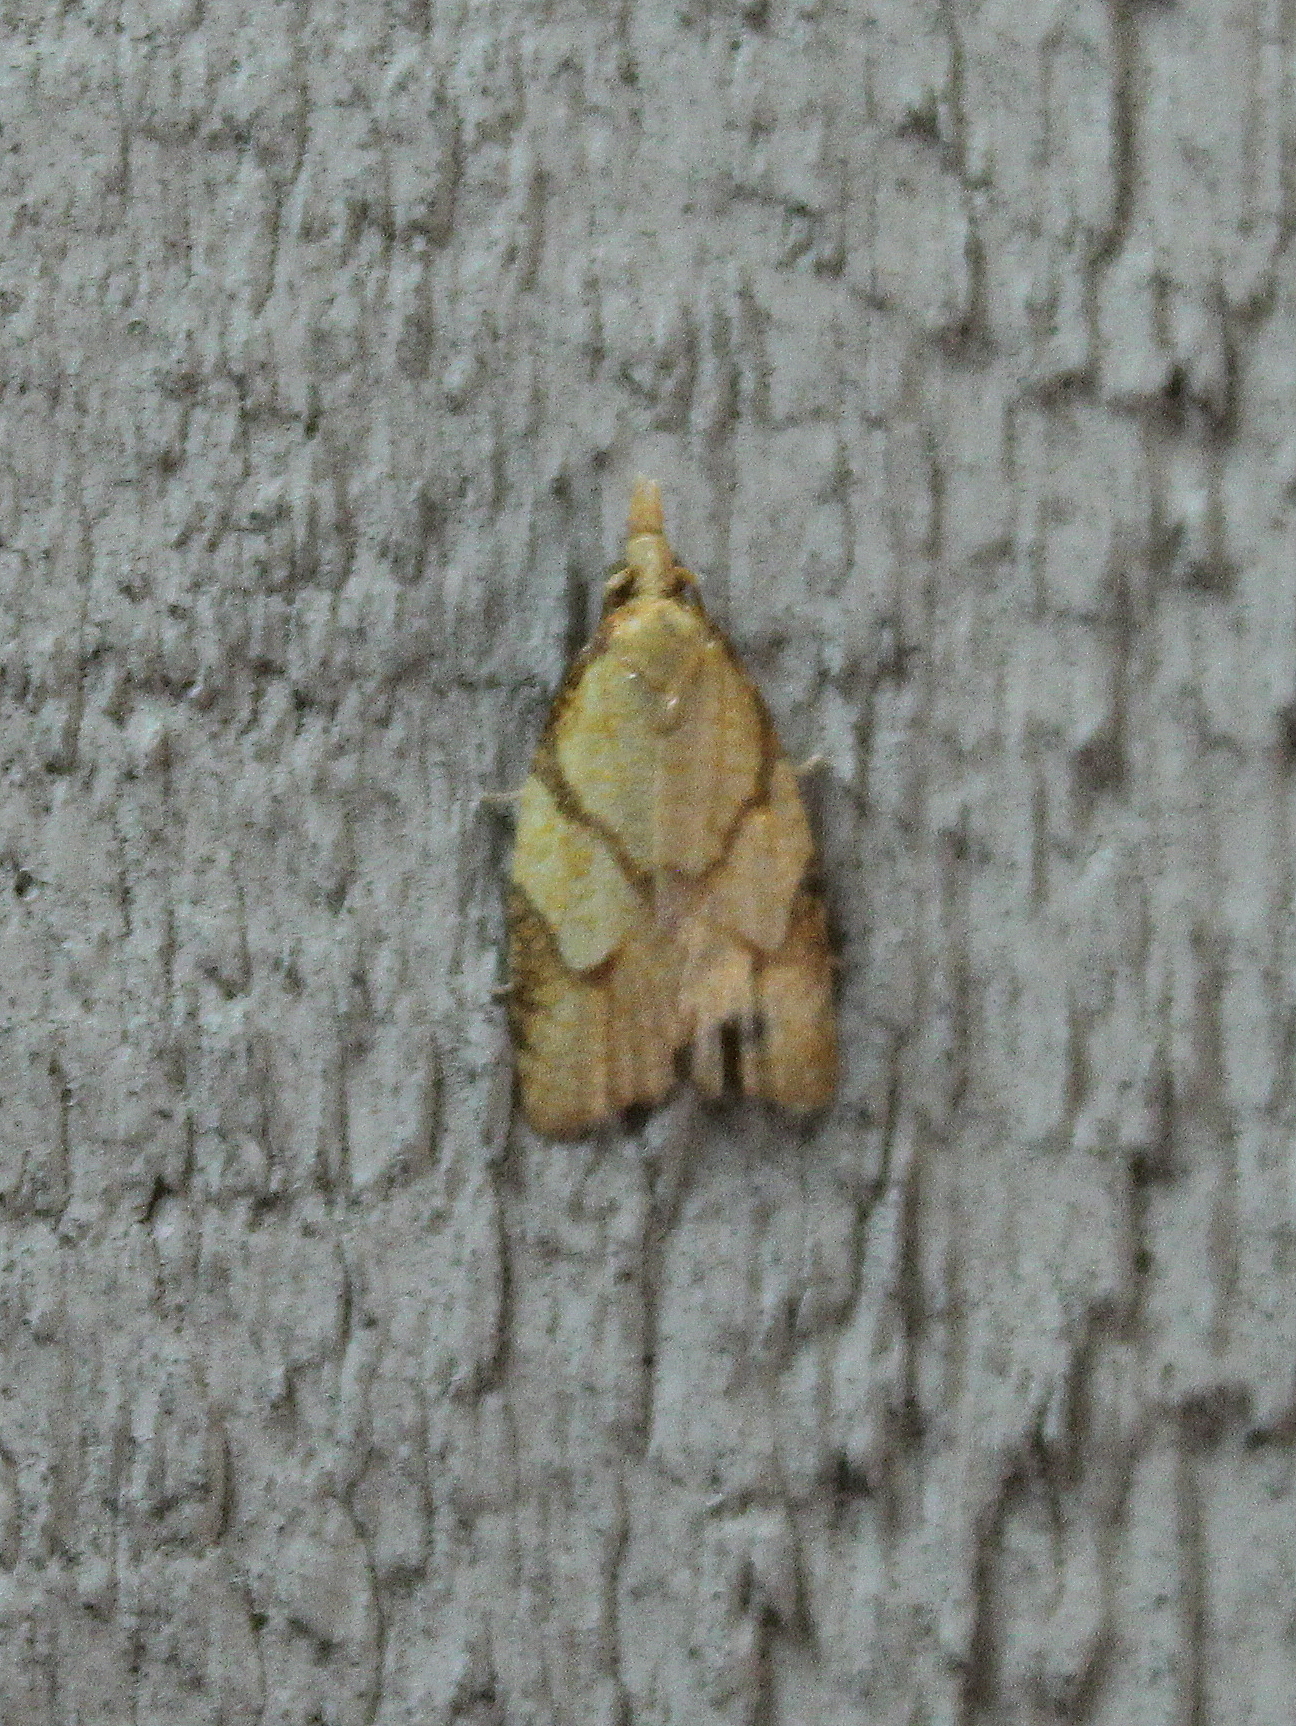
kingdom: Animalia
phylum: Arthropoda
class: Insecta
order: Lepidoptera
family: Tortricidae
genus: Cenopis
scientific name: Cenopis reticulatana
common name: Reticulated fruitworm moth
